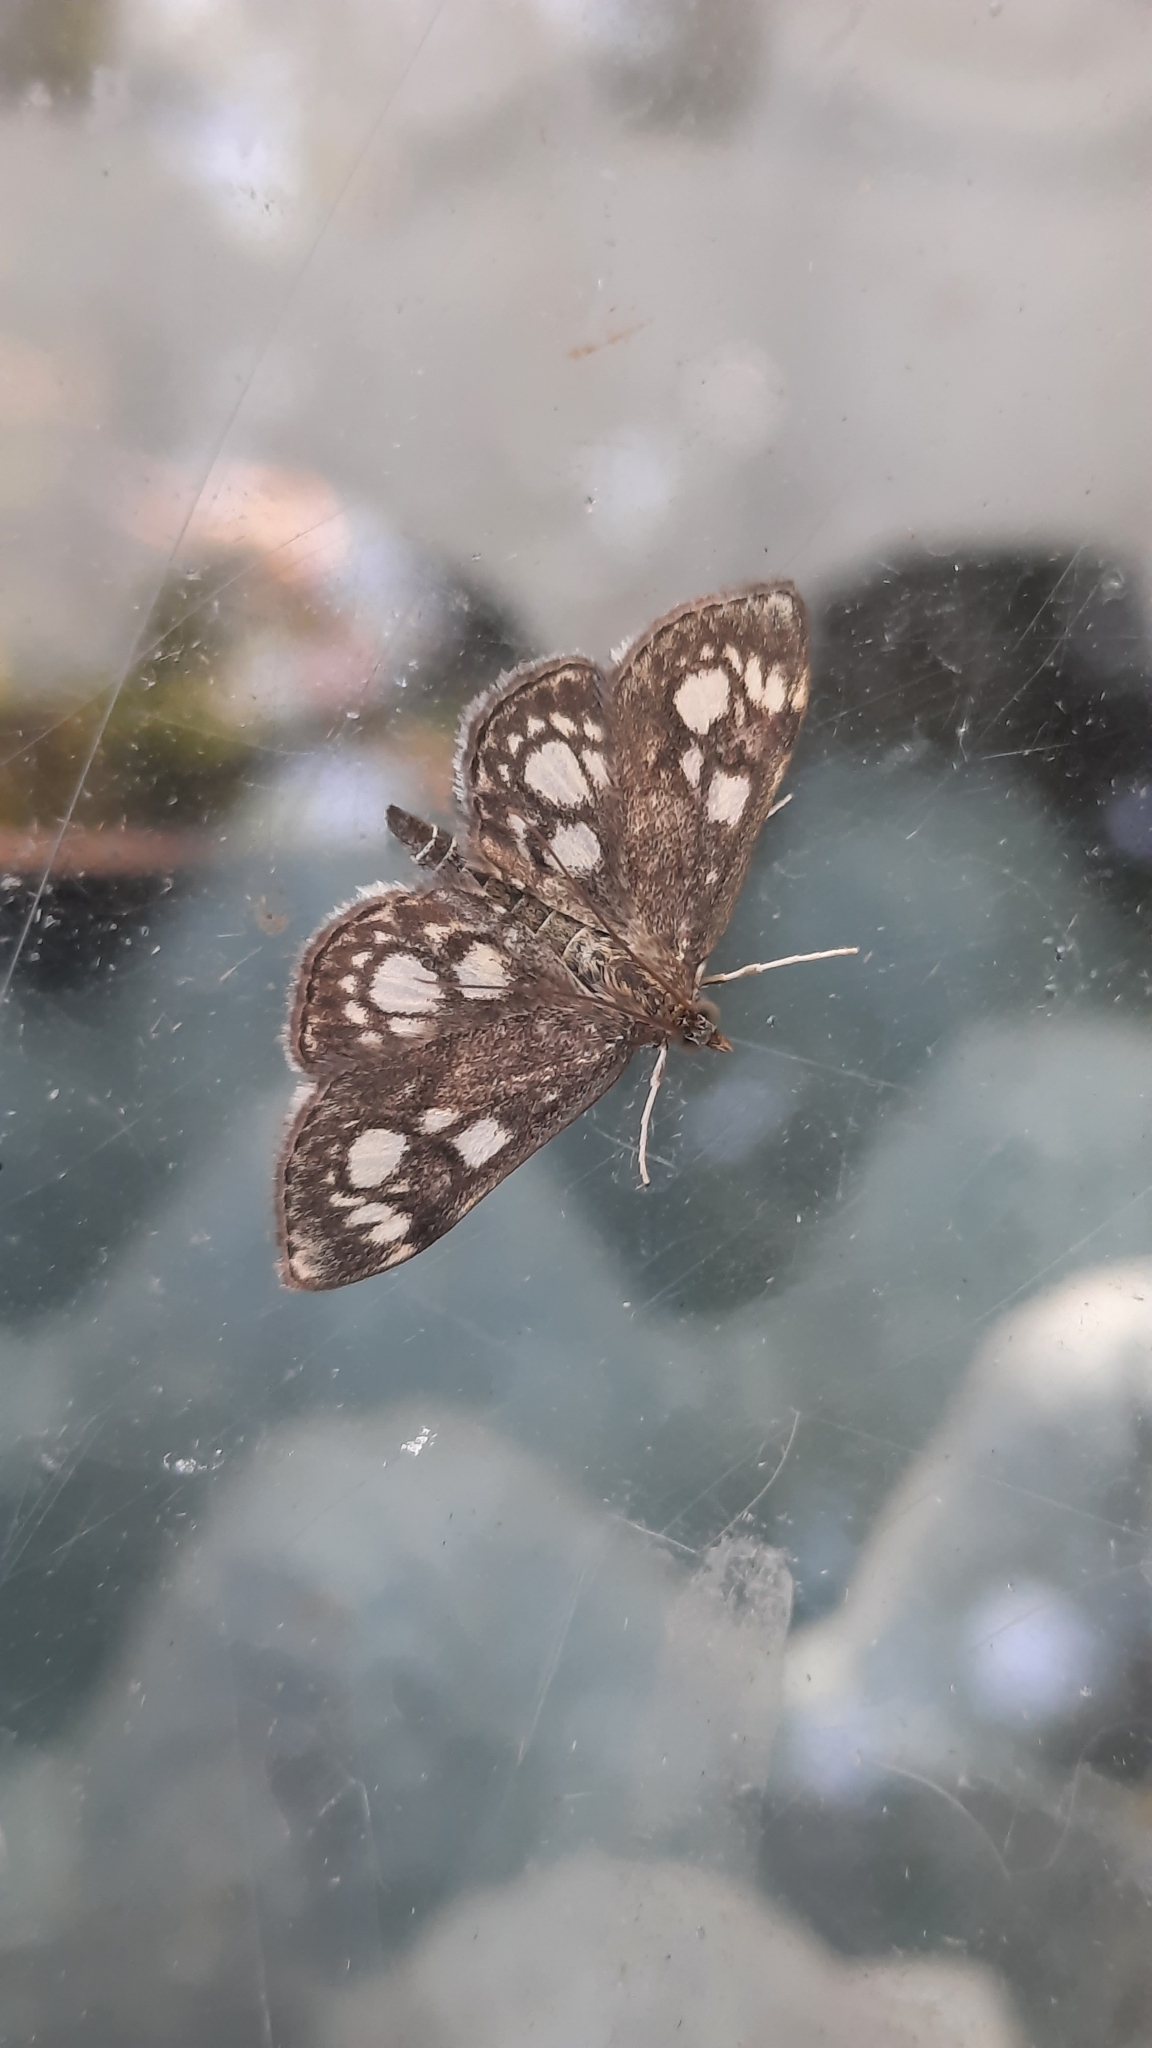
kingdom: Animalia
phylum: Arthropoda
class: Insecta
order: Lepidoptera
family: Crambidae
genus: Anania
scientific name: Anania coronata
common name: Elder pearl
